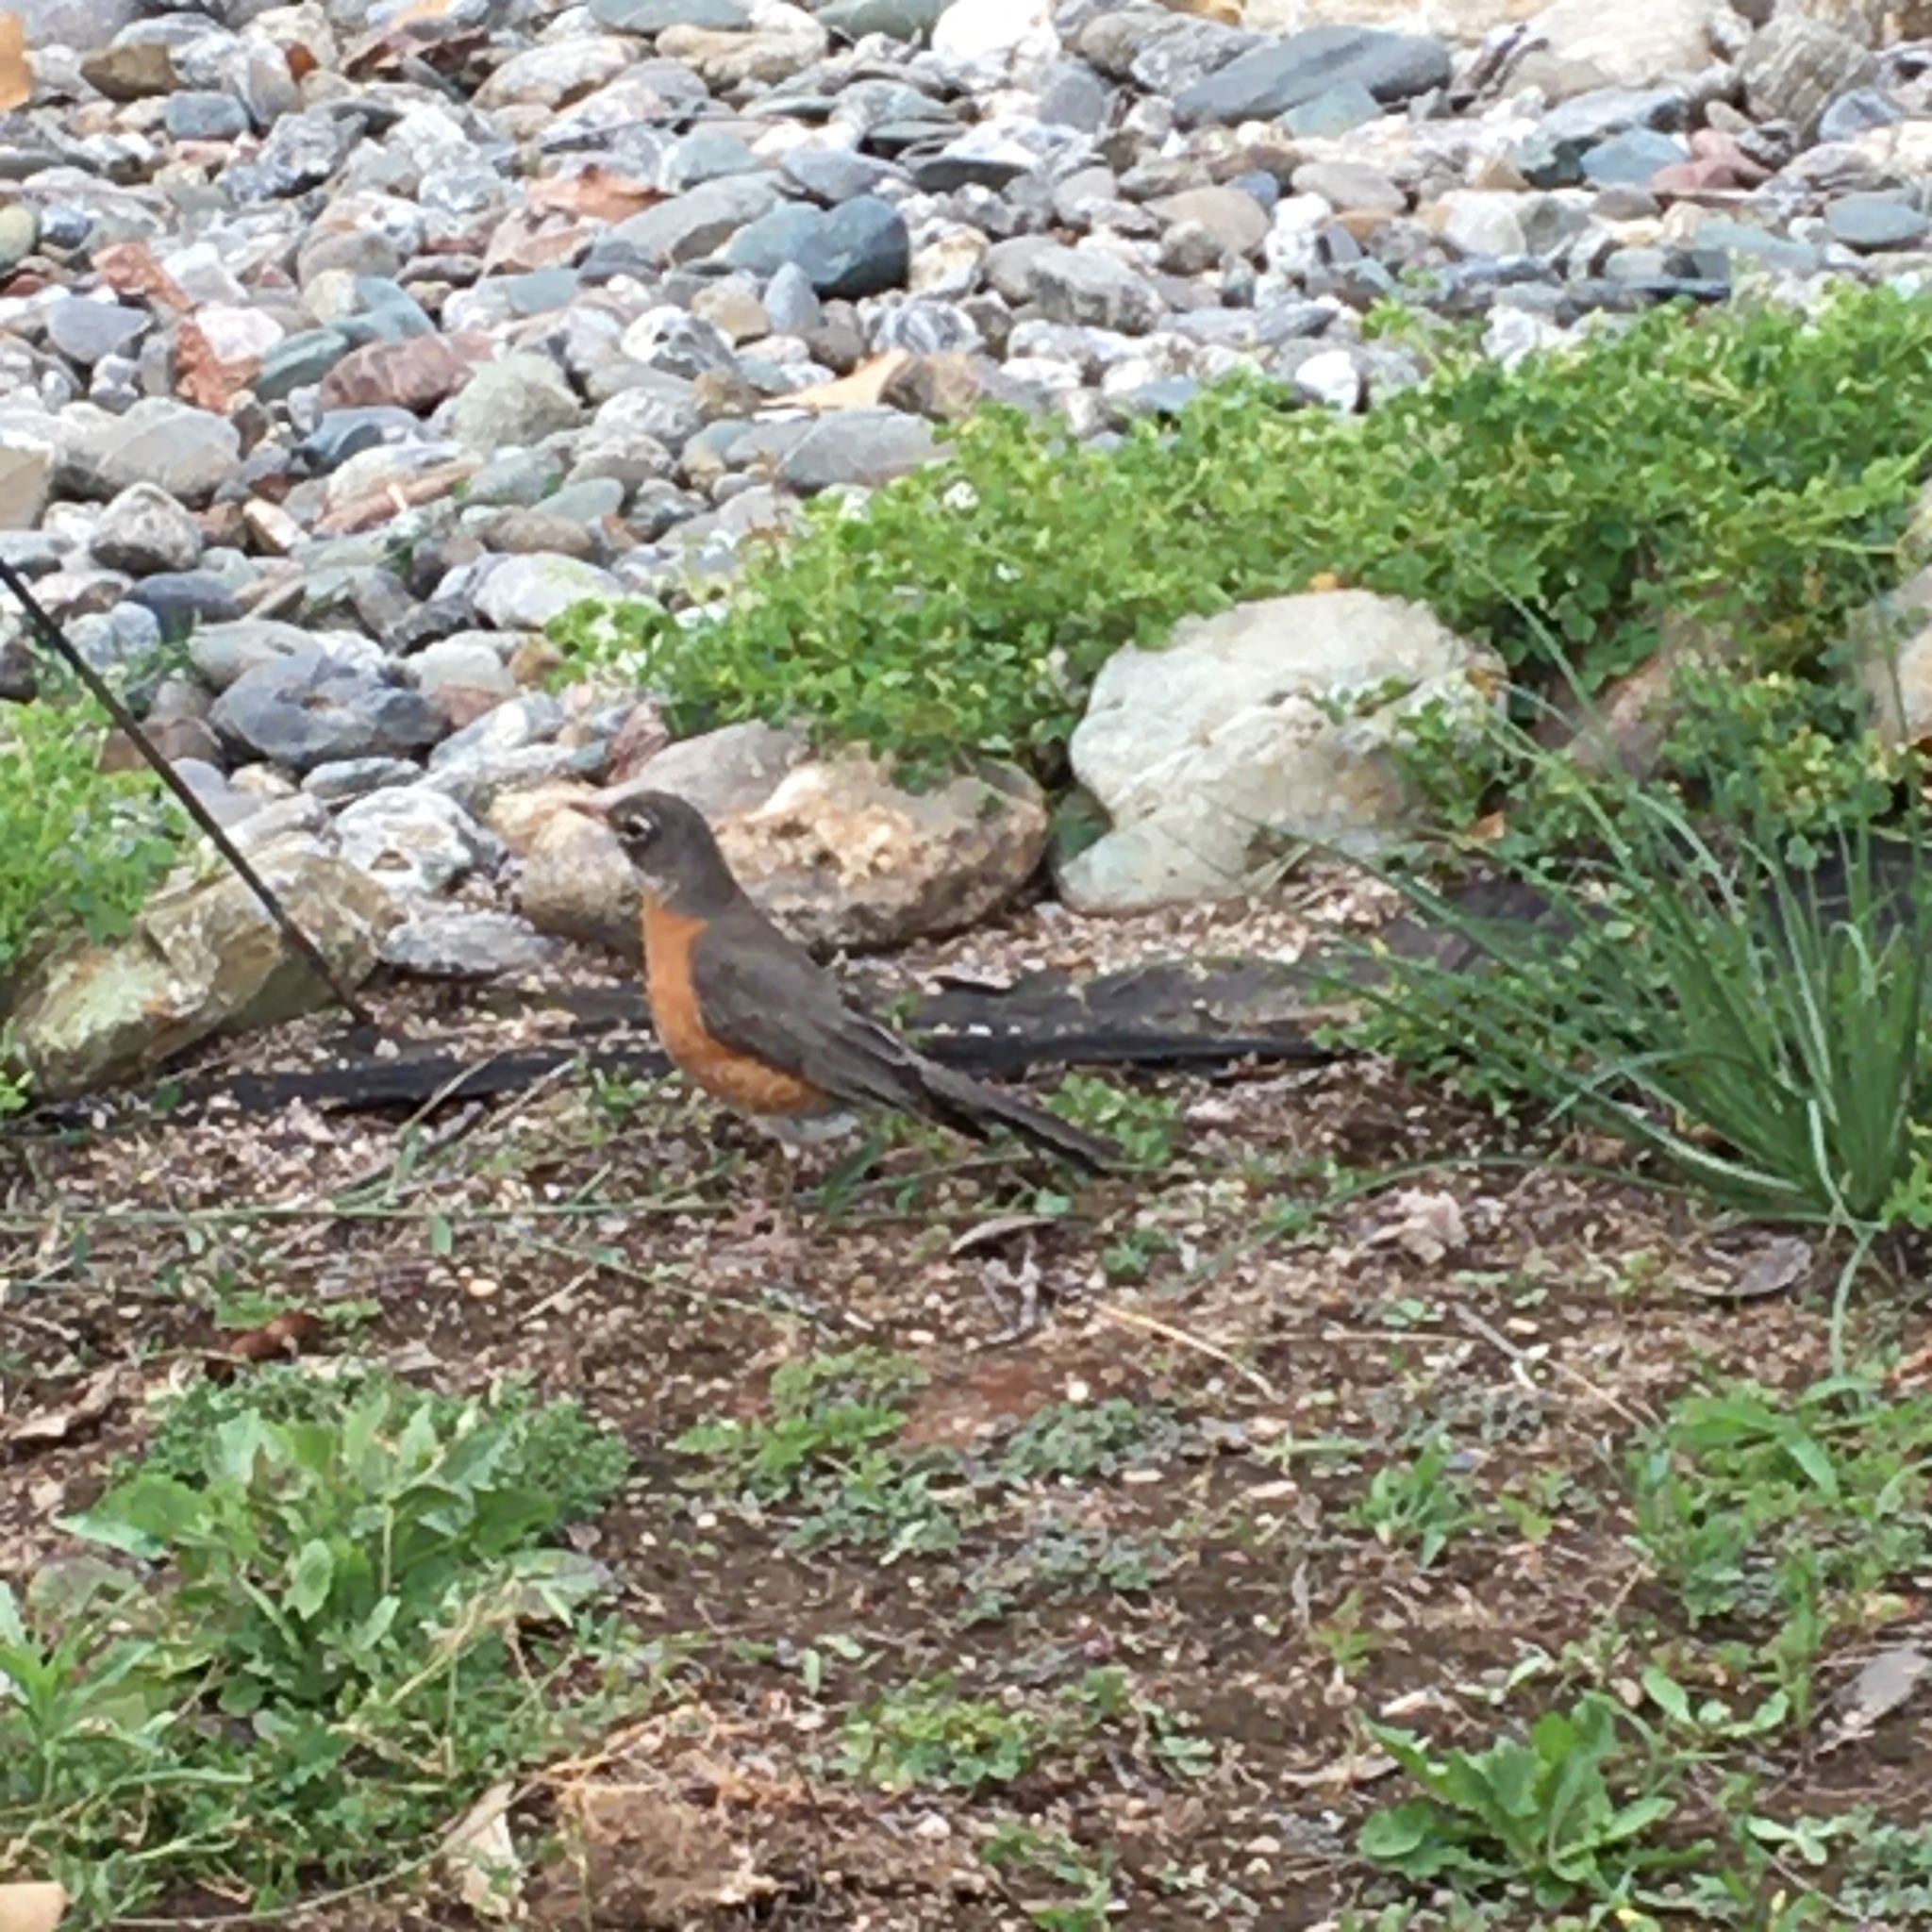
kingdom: Animalia
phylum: Chordata
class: Aves
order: Passeriformes
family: Turdidae
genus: Turdus
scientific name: Turdus migratorius
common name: American robin
